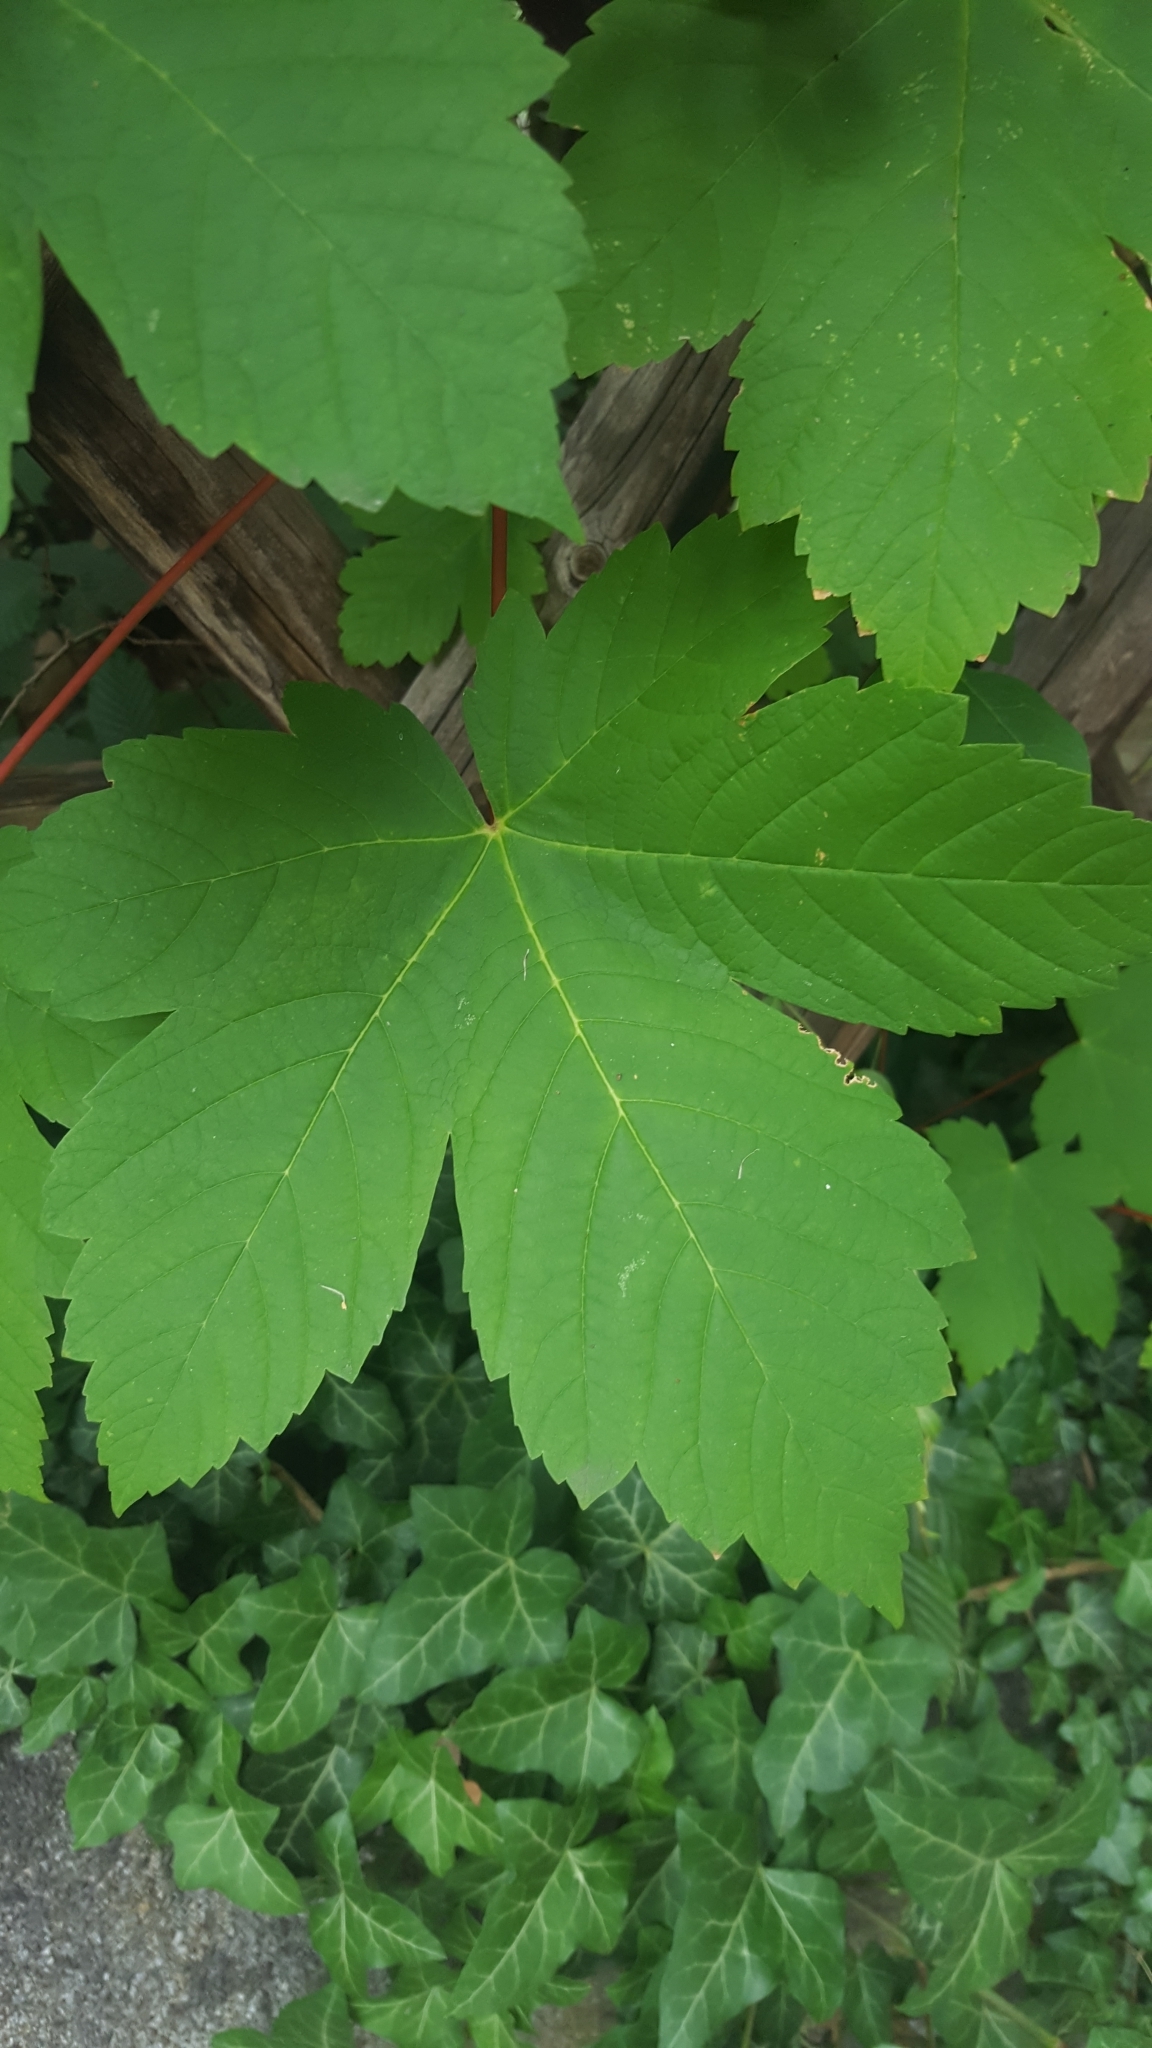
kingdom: Plantae
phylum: Tracheophyta
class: Magnoliopsida
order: Sapindales
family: Sapindaceae
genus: Acer
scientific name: Acer pseudoplatanus
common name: Sycamore
